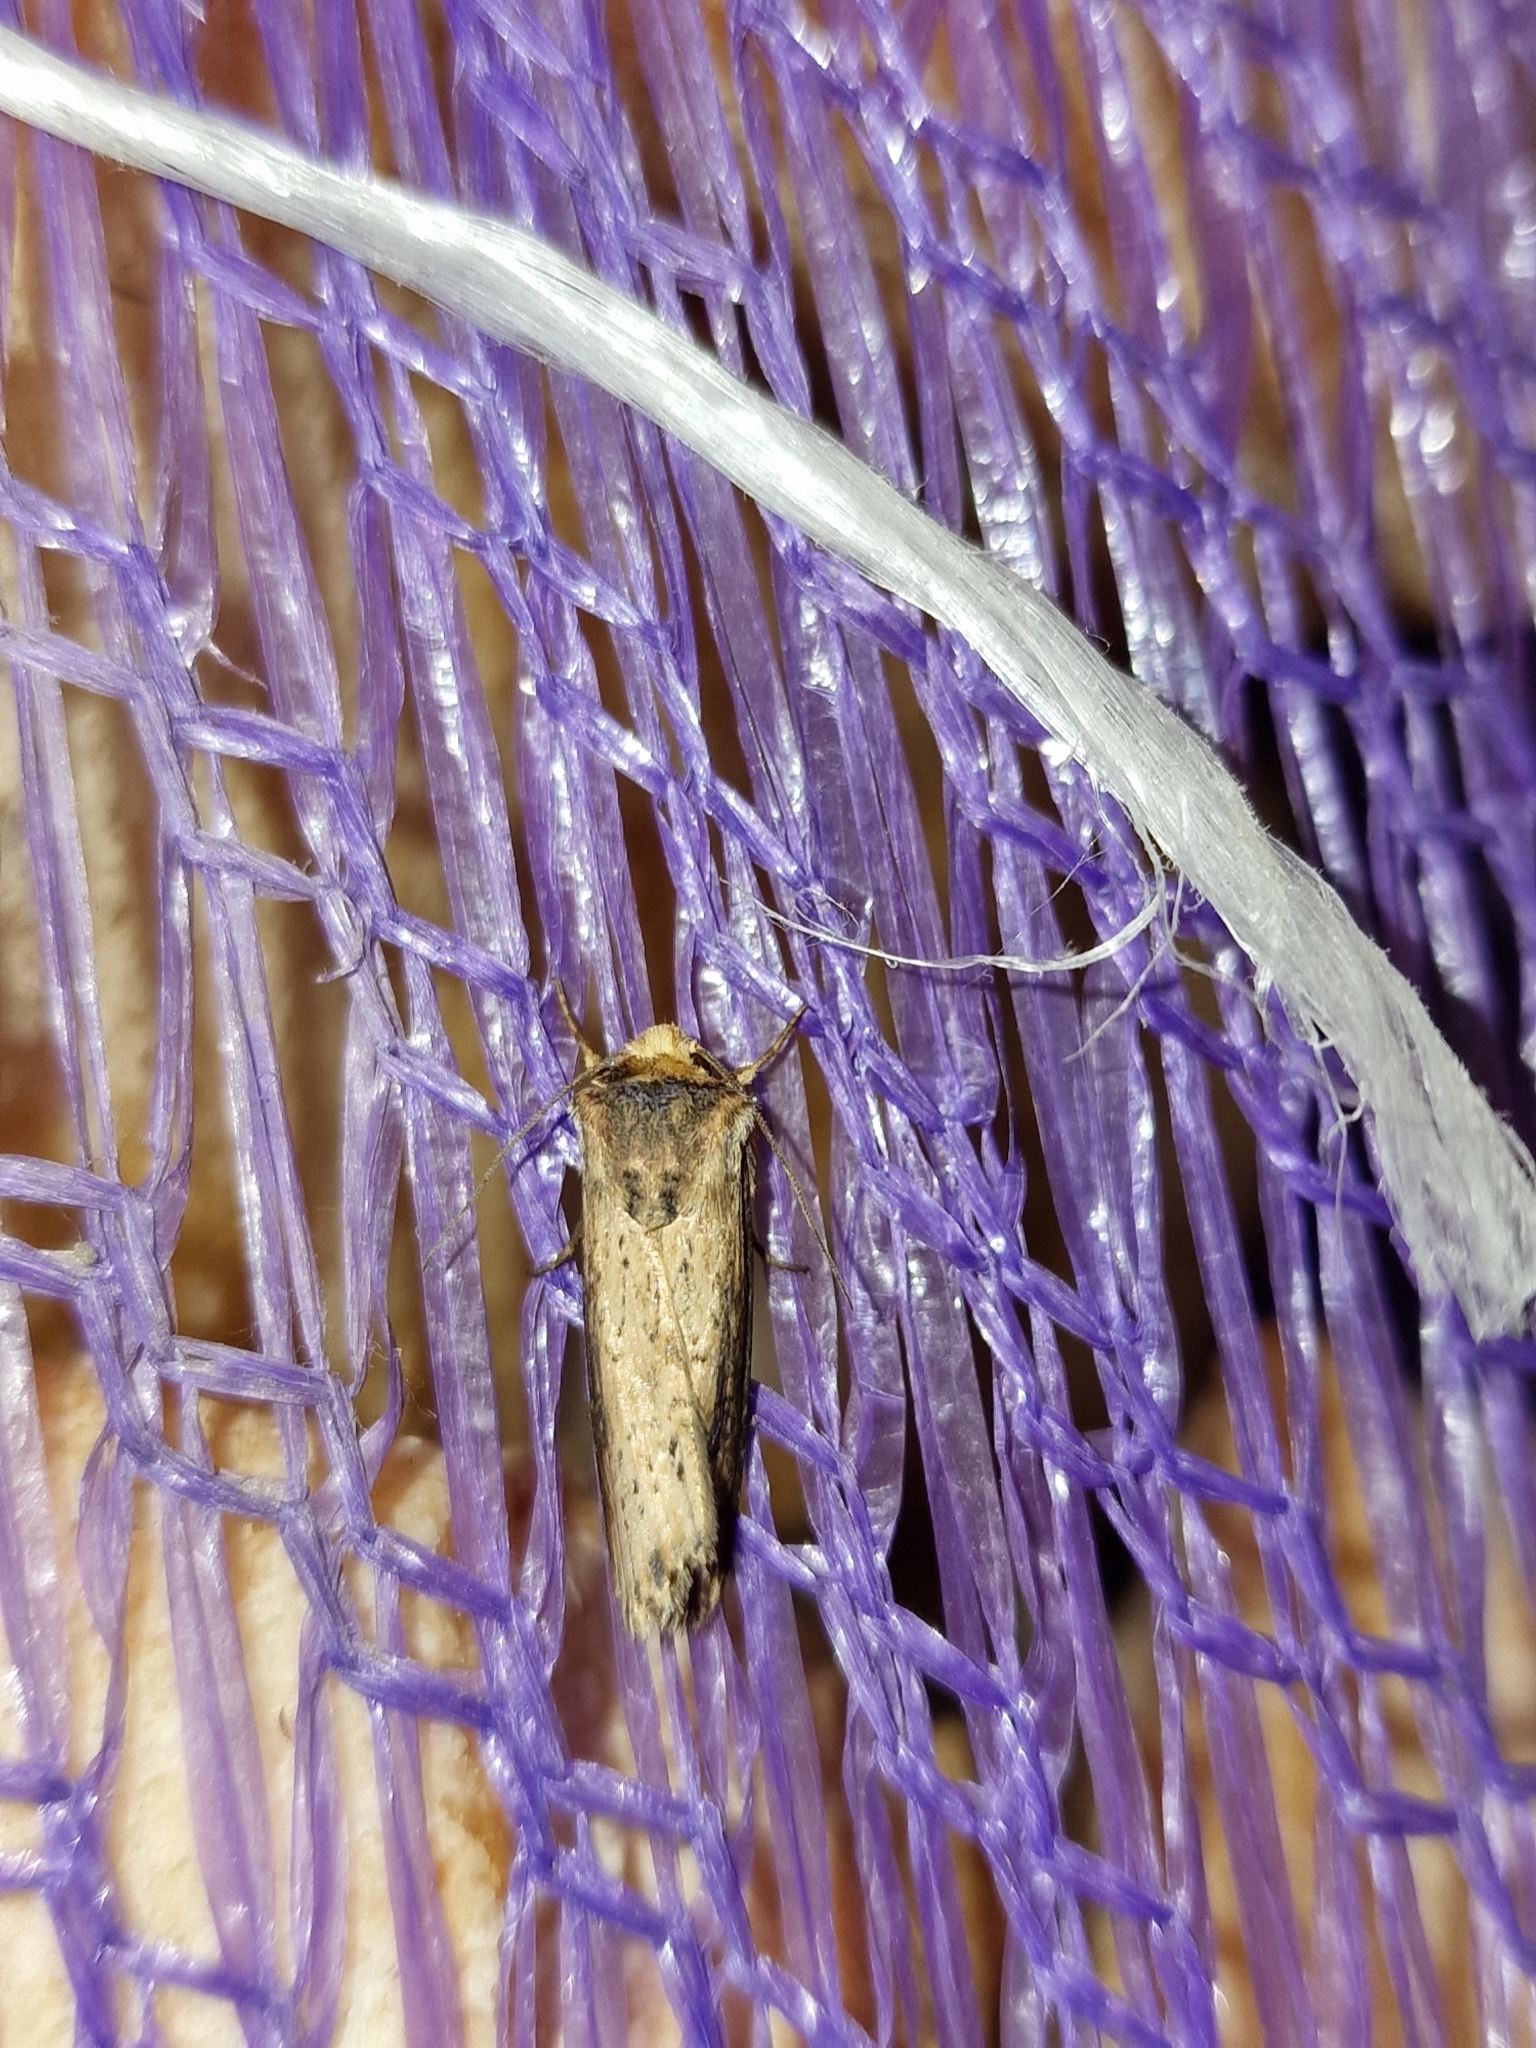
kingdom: Animalia
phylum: Arthropoda
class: Insecta
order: Lepidoptera
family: Noctuidae
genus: Axylia
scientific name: Axylia putris
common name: Flame
